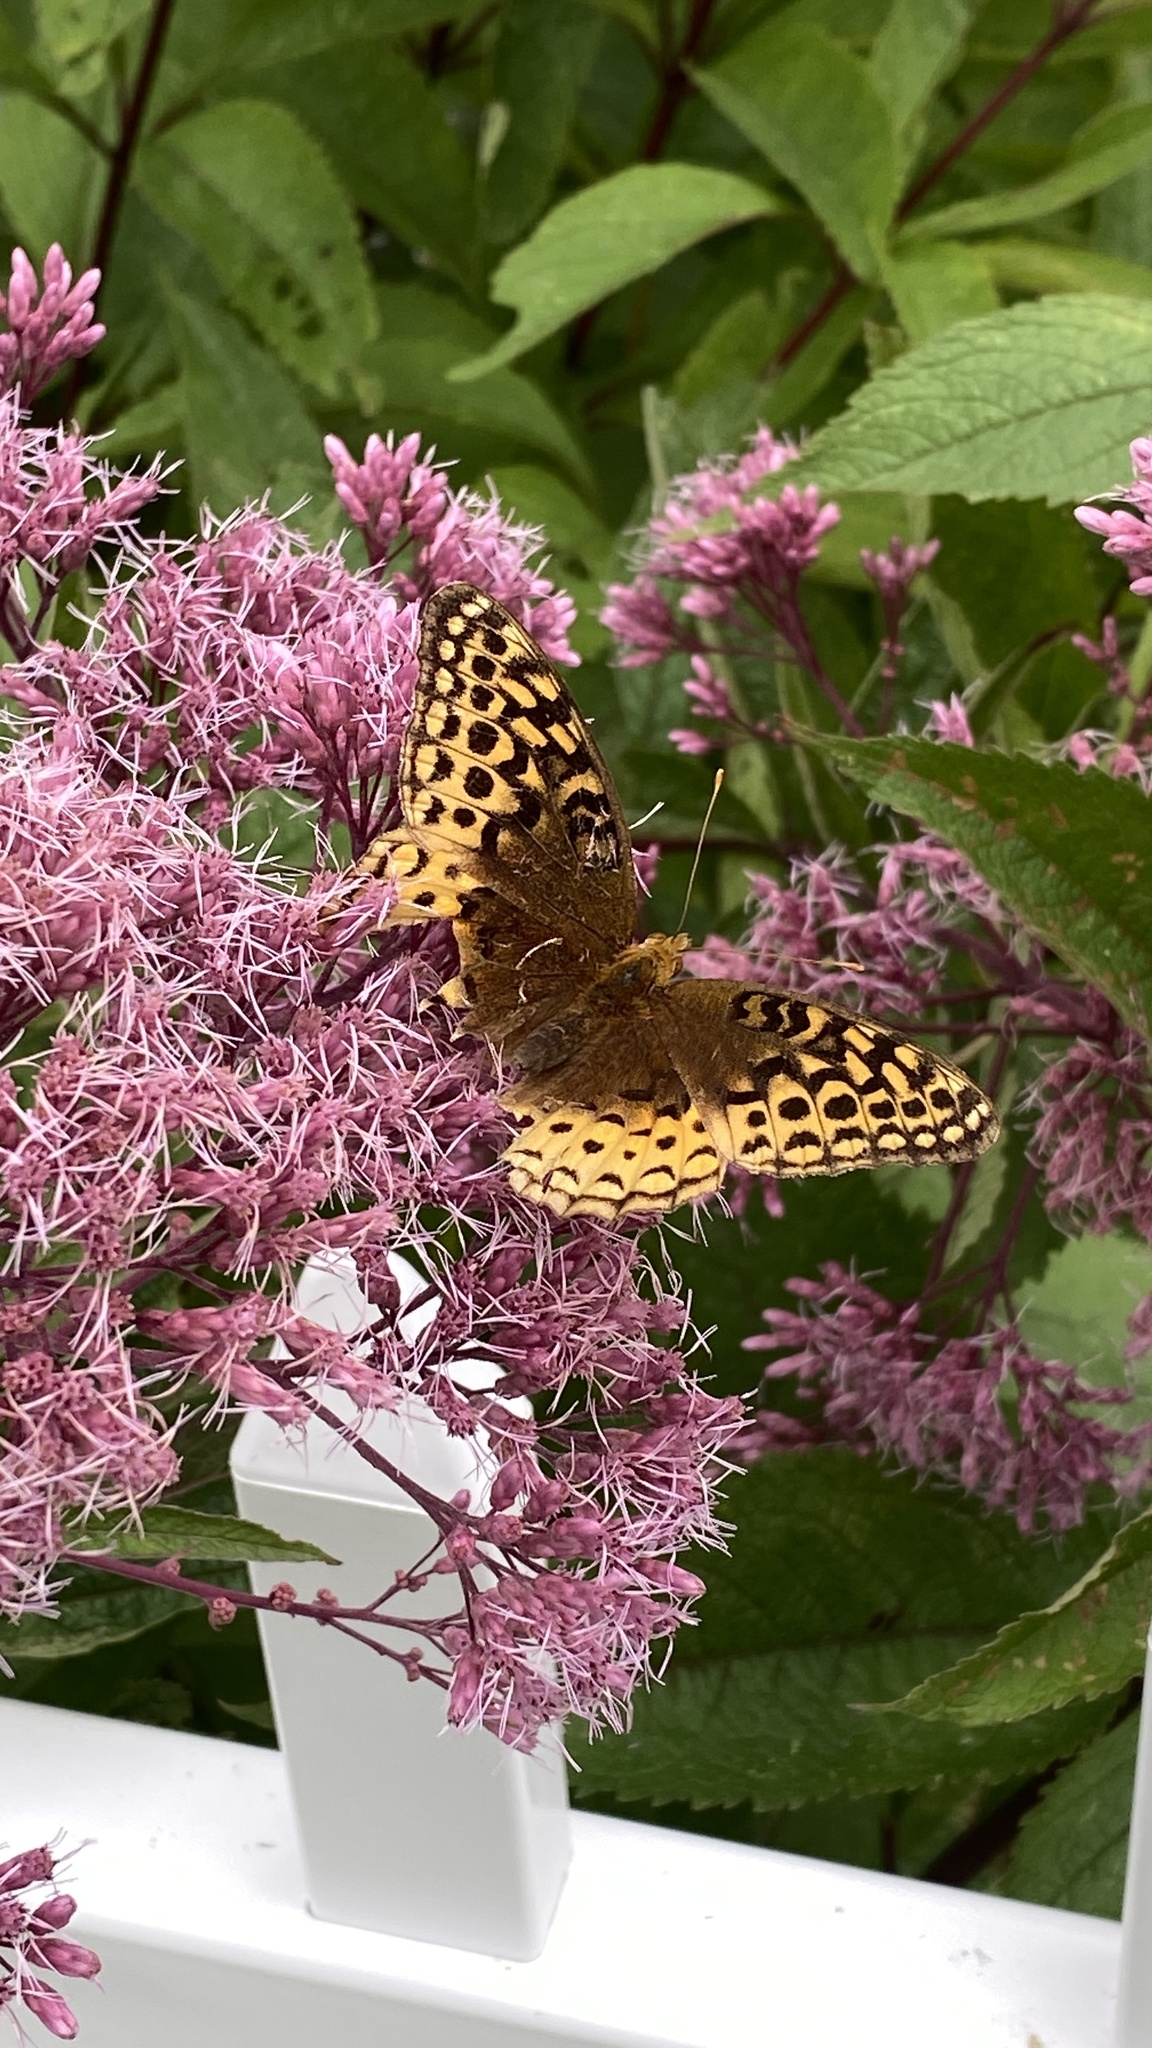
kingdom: Animalia
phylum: Arthropoda
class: Insecta
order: Lepidoptera
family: Nymphalidae
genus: Speyeria
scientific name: Speyeria cybele
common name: Great spangled fritillary
